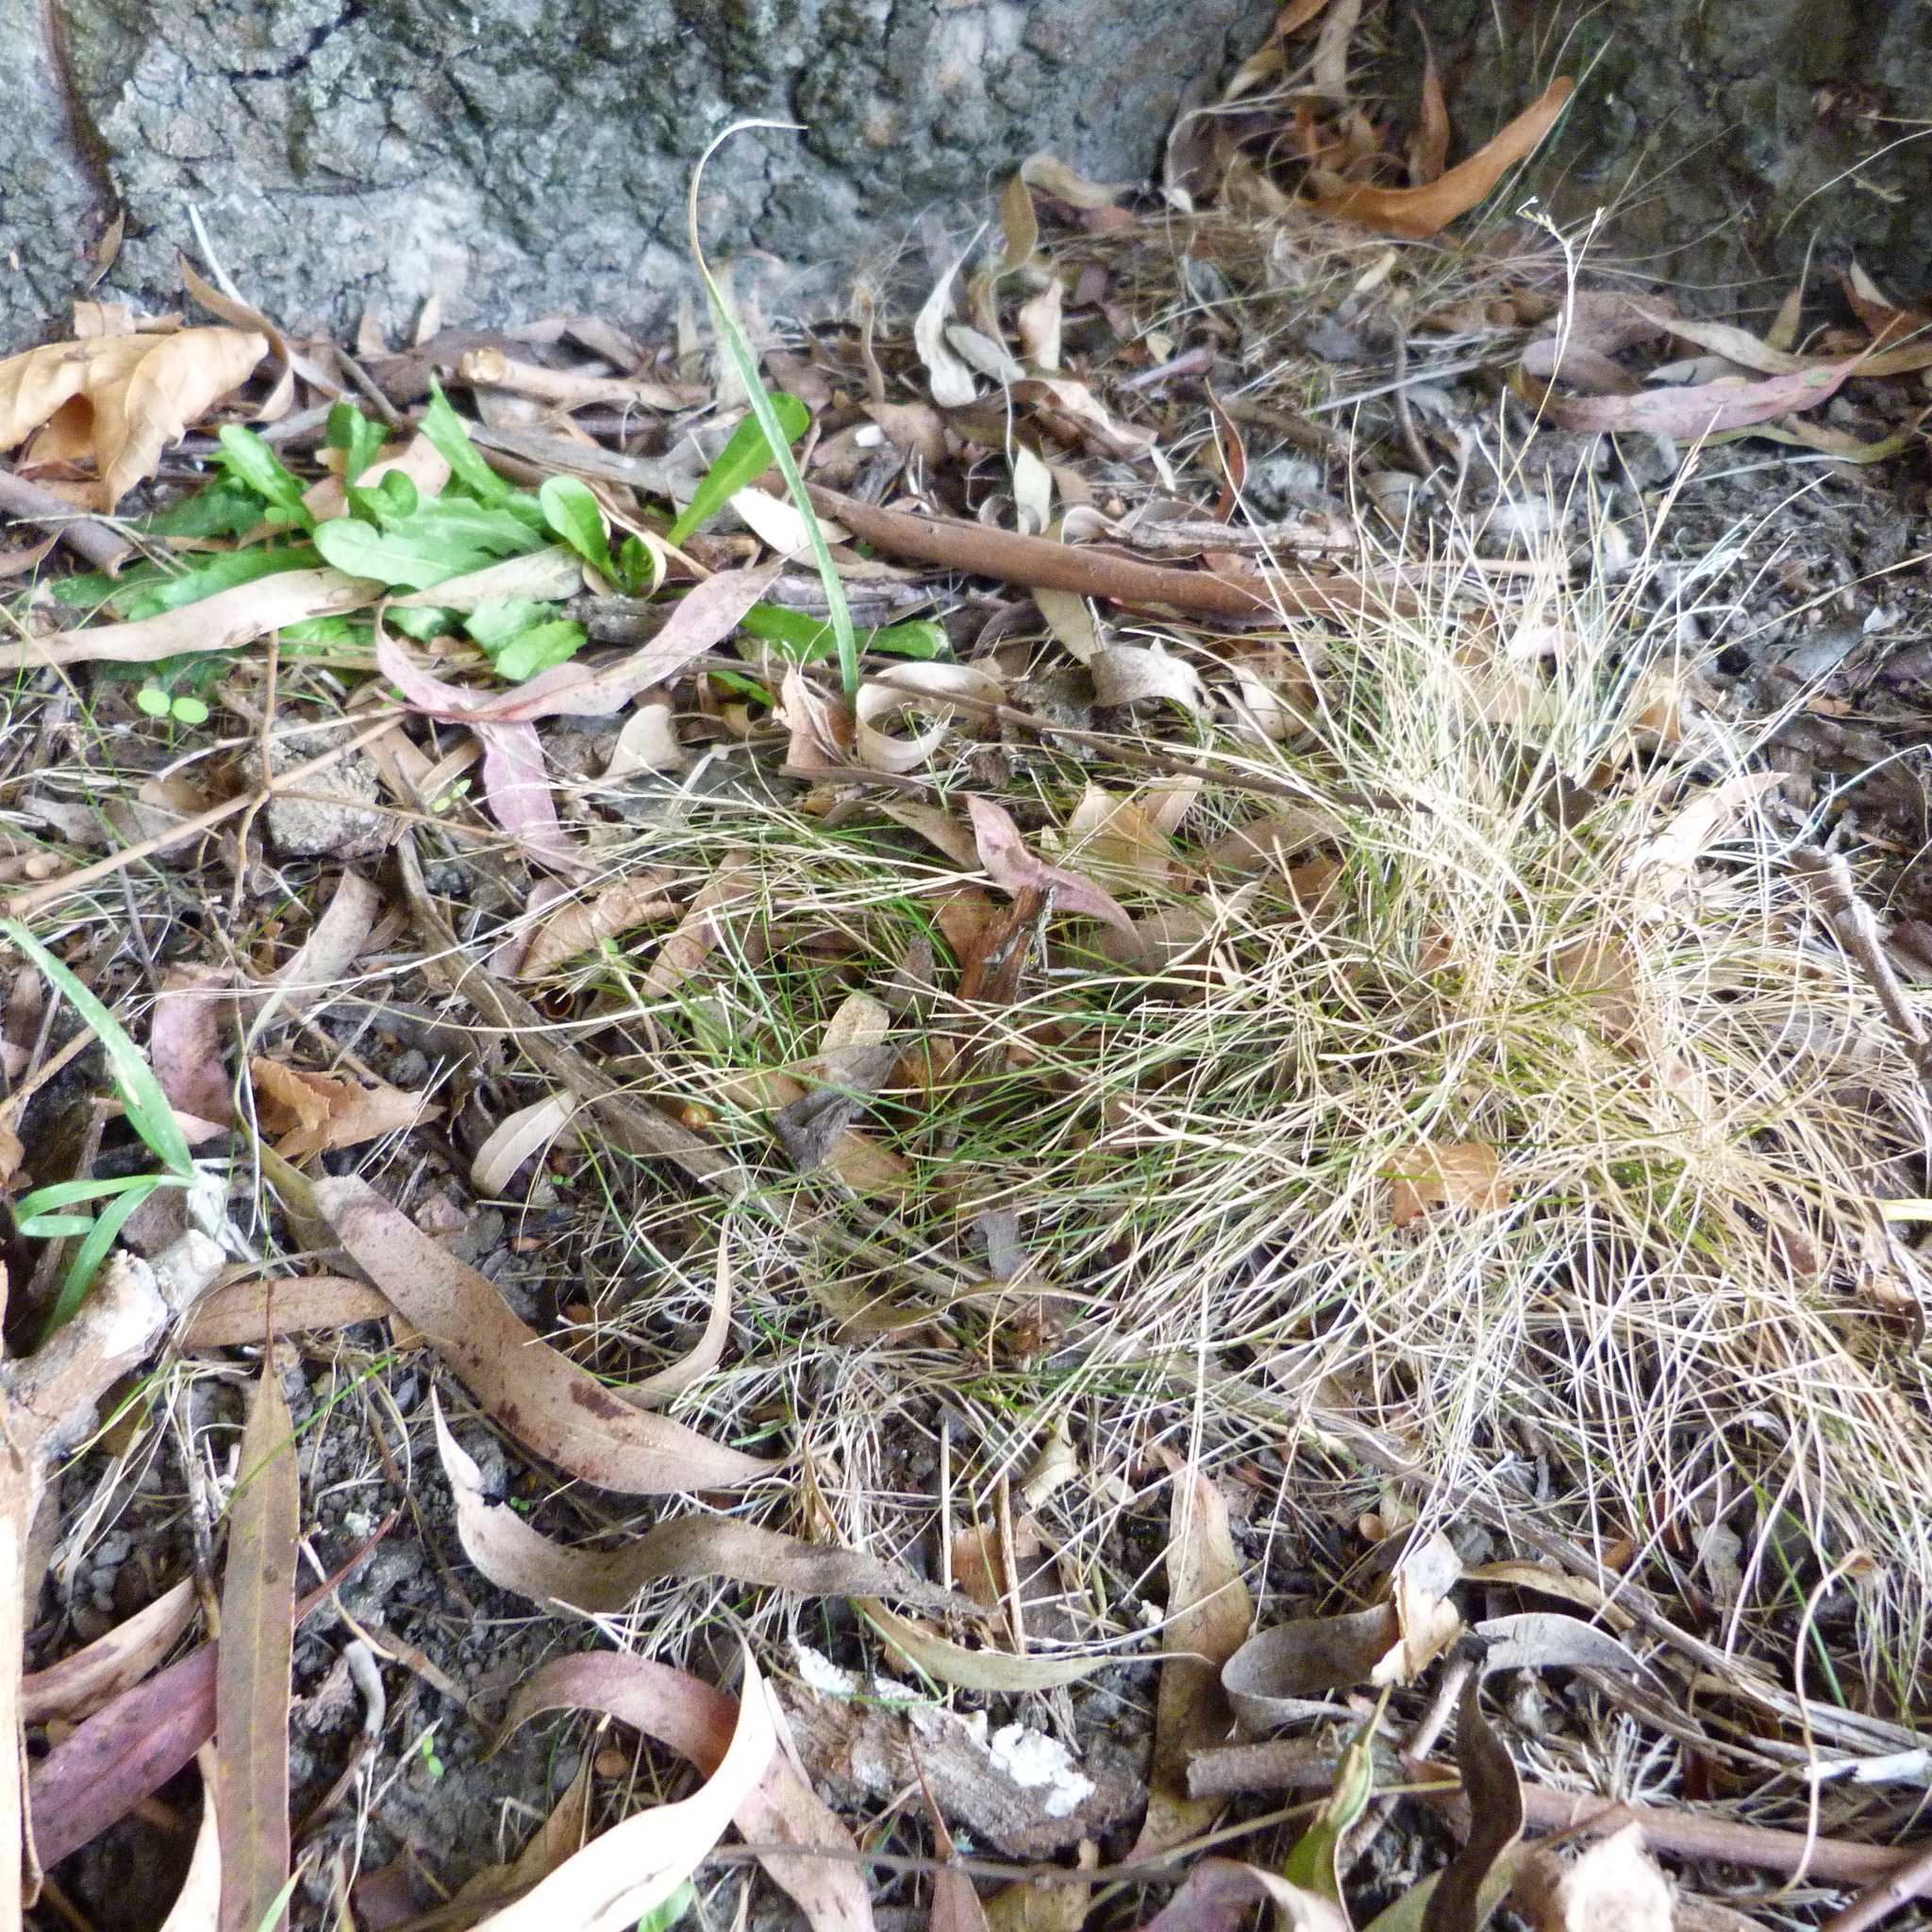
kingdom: Plantae
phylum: Tracheophyta
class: Liliopsida
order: Poales
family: Poaceae
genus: Poa
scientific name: Poa imbecilla
